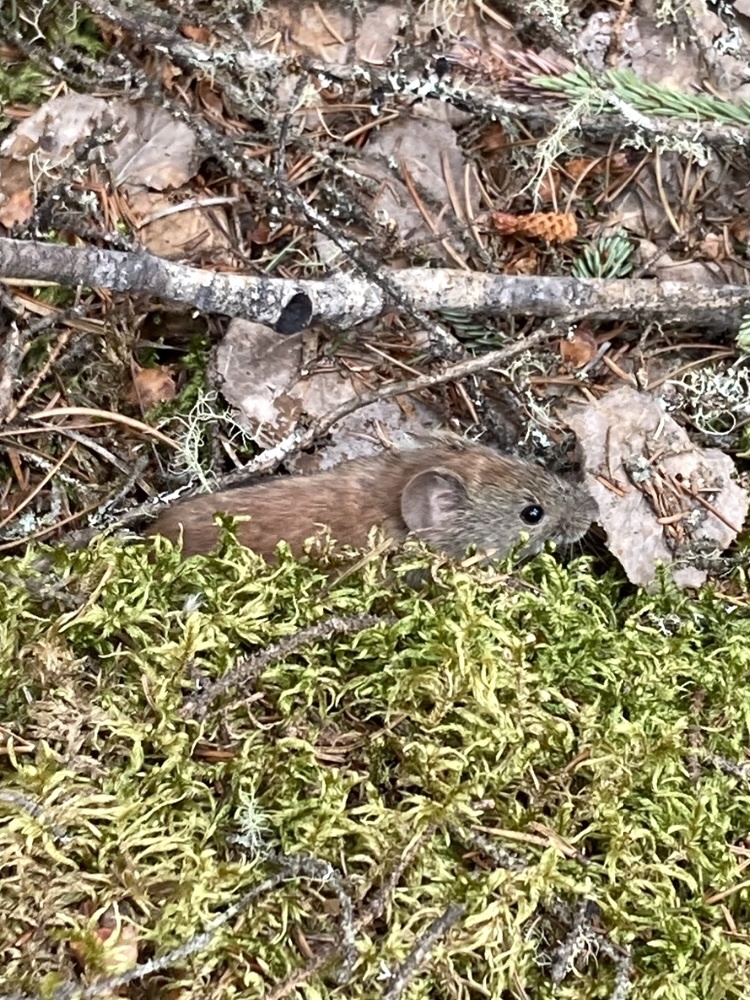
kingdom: Animalia
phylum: Chordata
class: Mammalia
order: Rodentia
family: Cricetidae
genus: Myodes
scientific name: Myodes gapperi
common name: Southern red-backed vole
